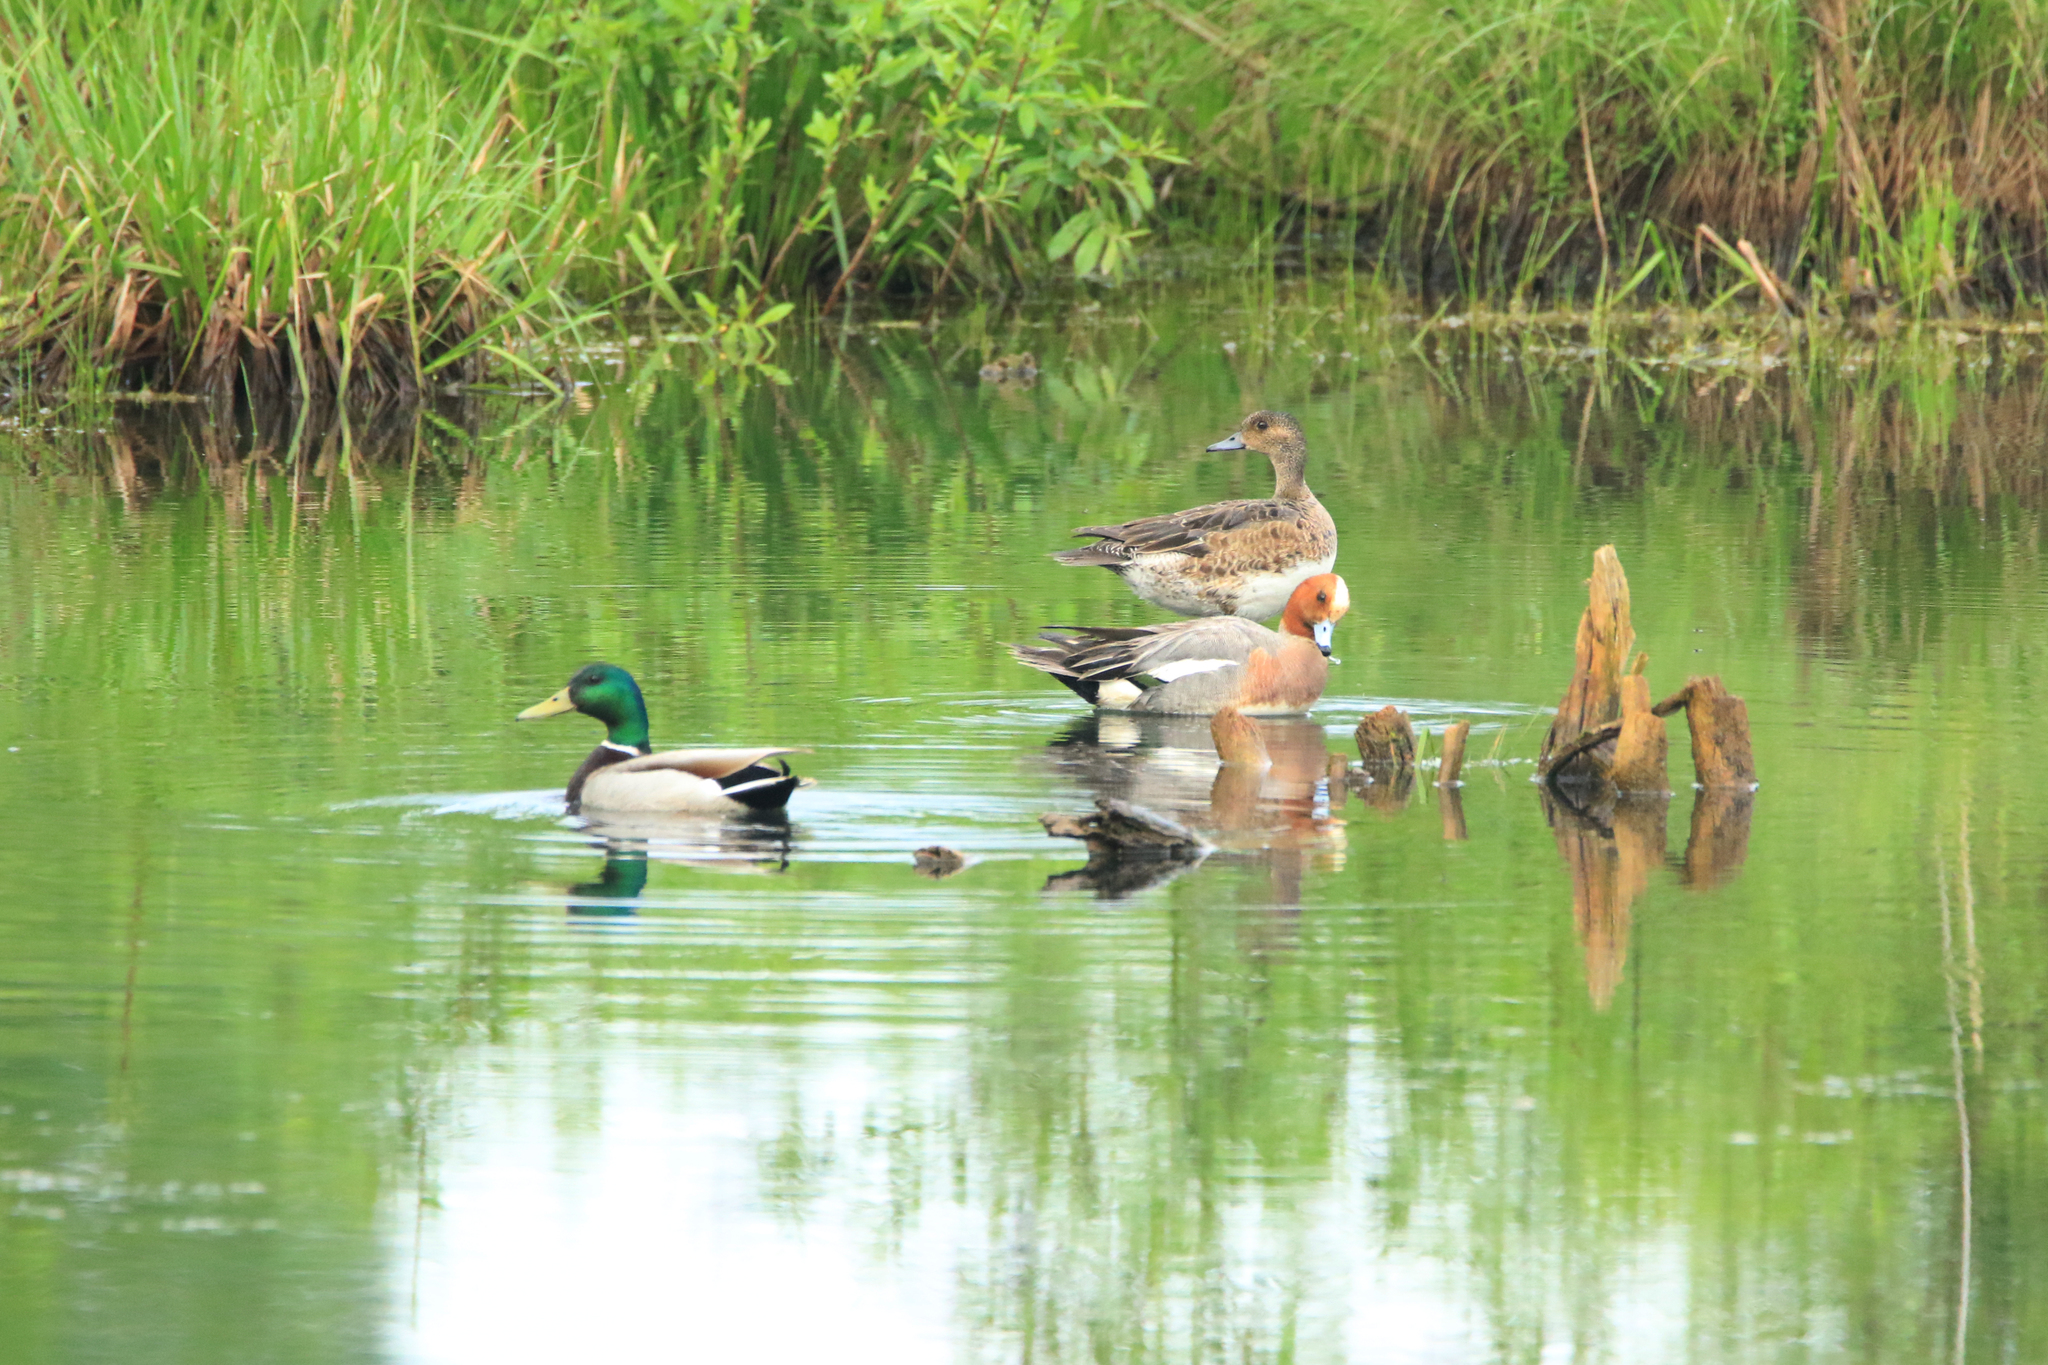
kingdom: Animalia
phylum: Chordata
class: Aves
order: Anseriformes
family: Anatidae
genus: Mareca
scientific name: Mareca penelope
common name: Eurasian wigeon
